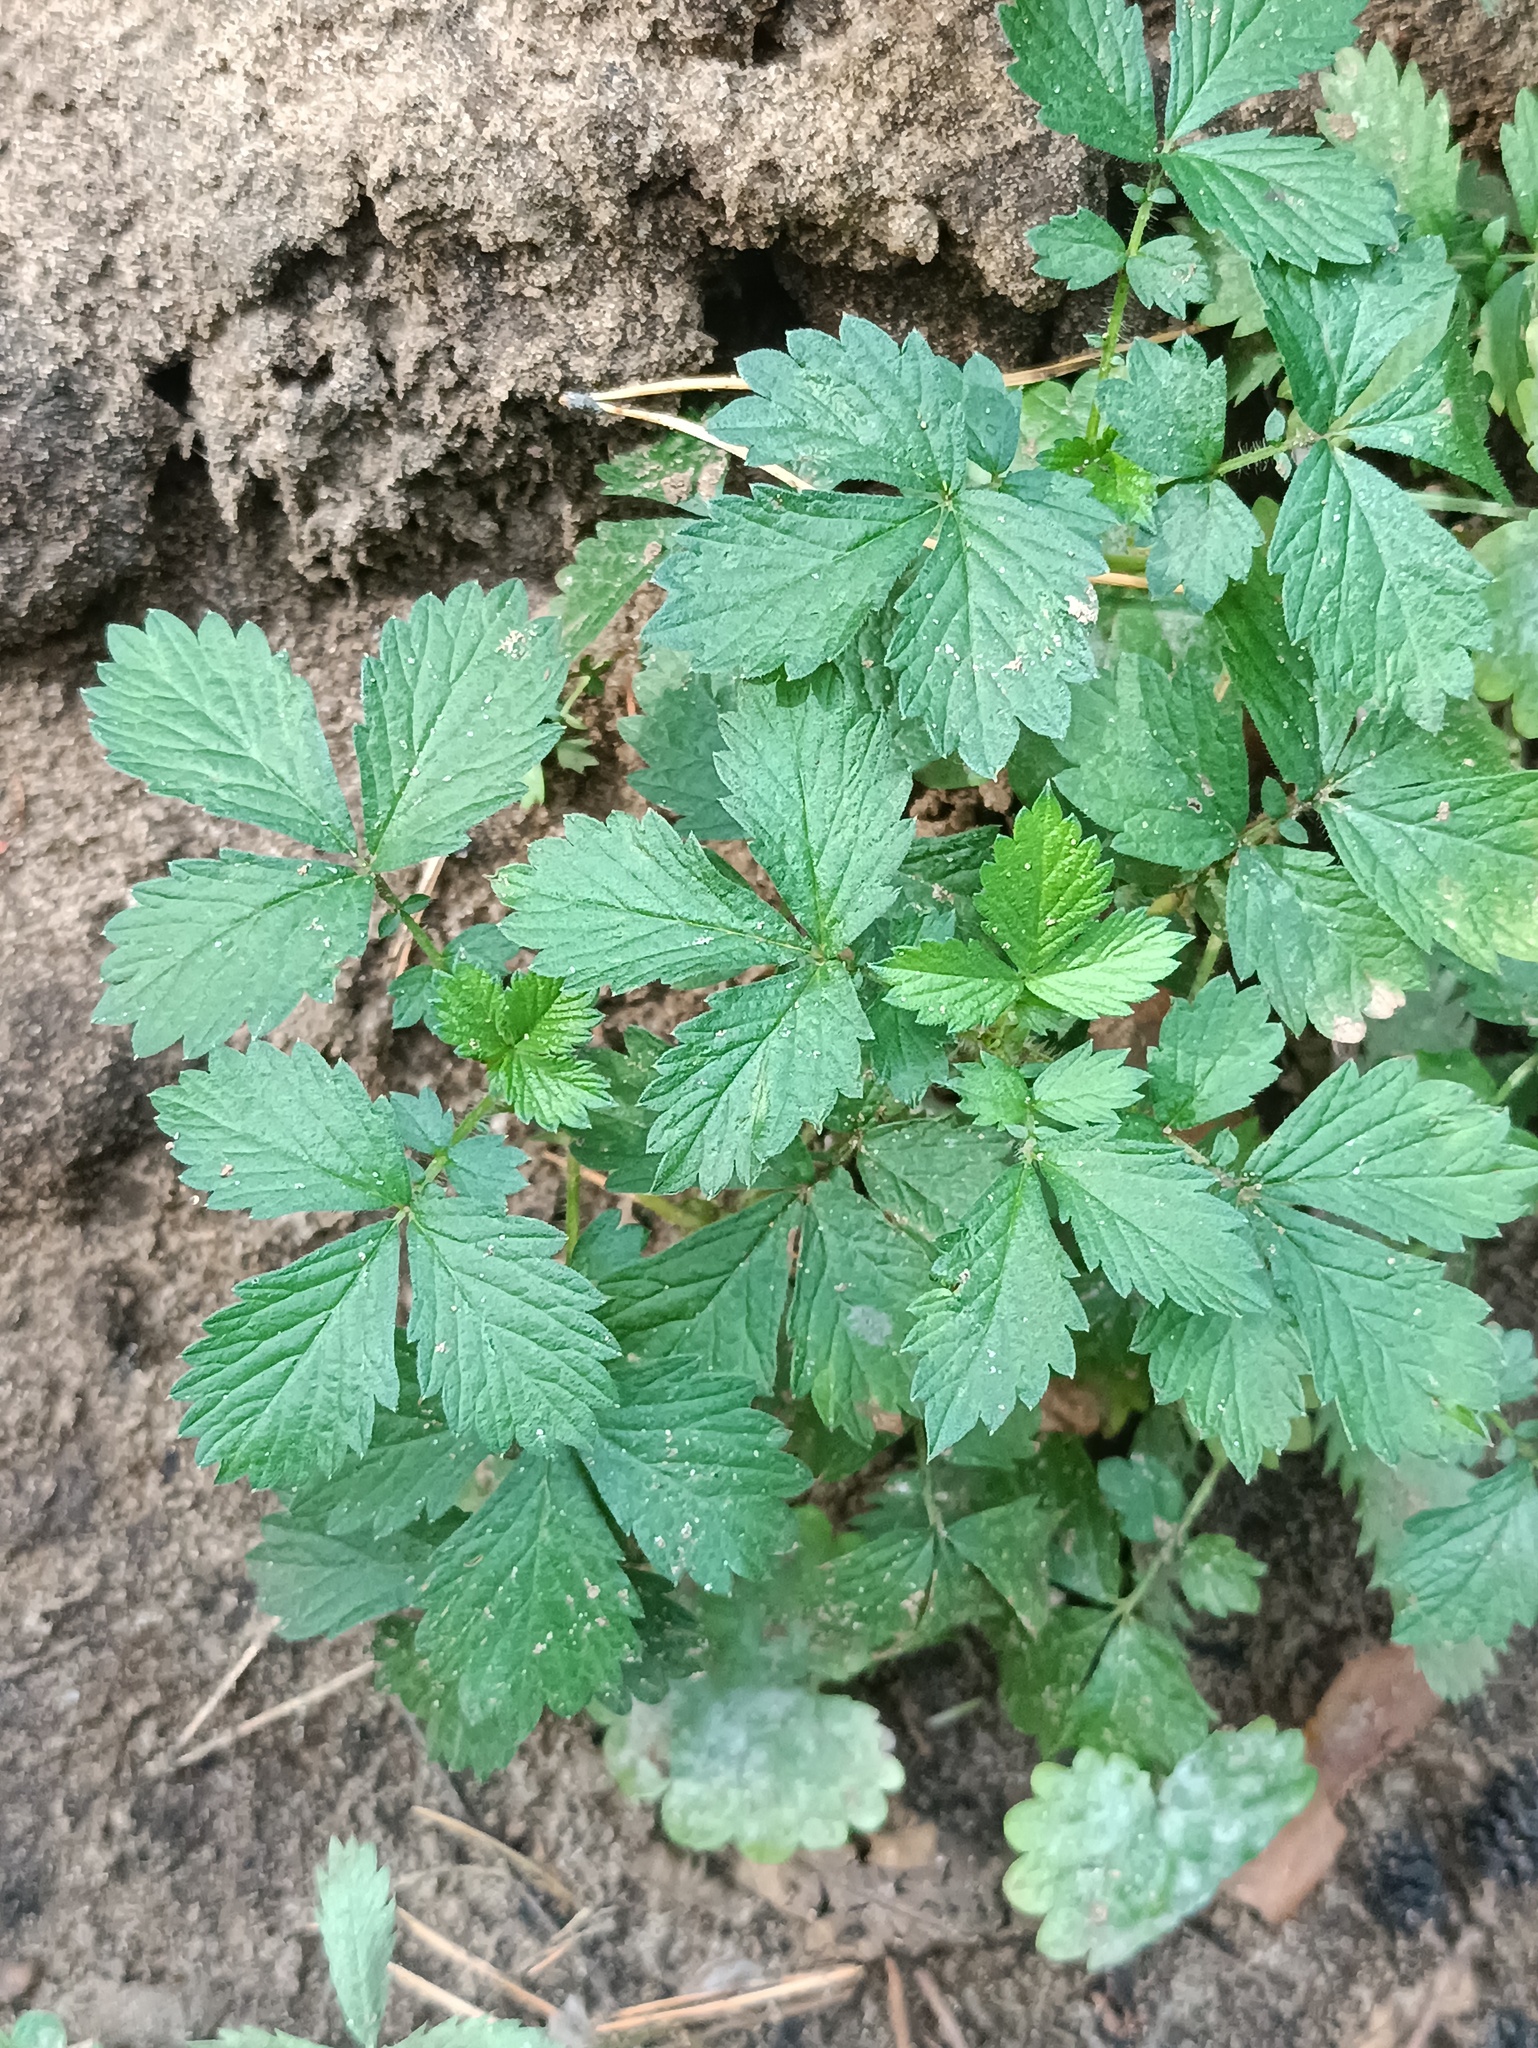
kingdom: Plantae
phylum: Tracheophyta
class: Magnoliopsida
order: Rosales
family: Rosaceae
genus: Potentilla
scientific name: Potentilla norvegica
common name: Ternate-leaved cinquefoil
